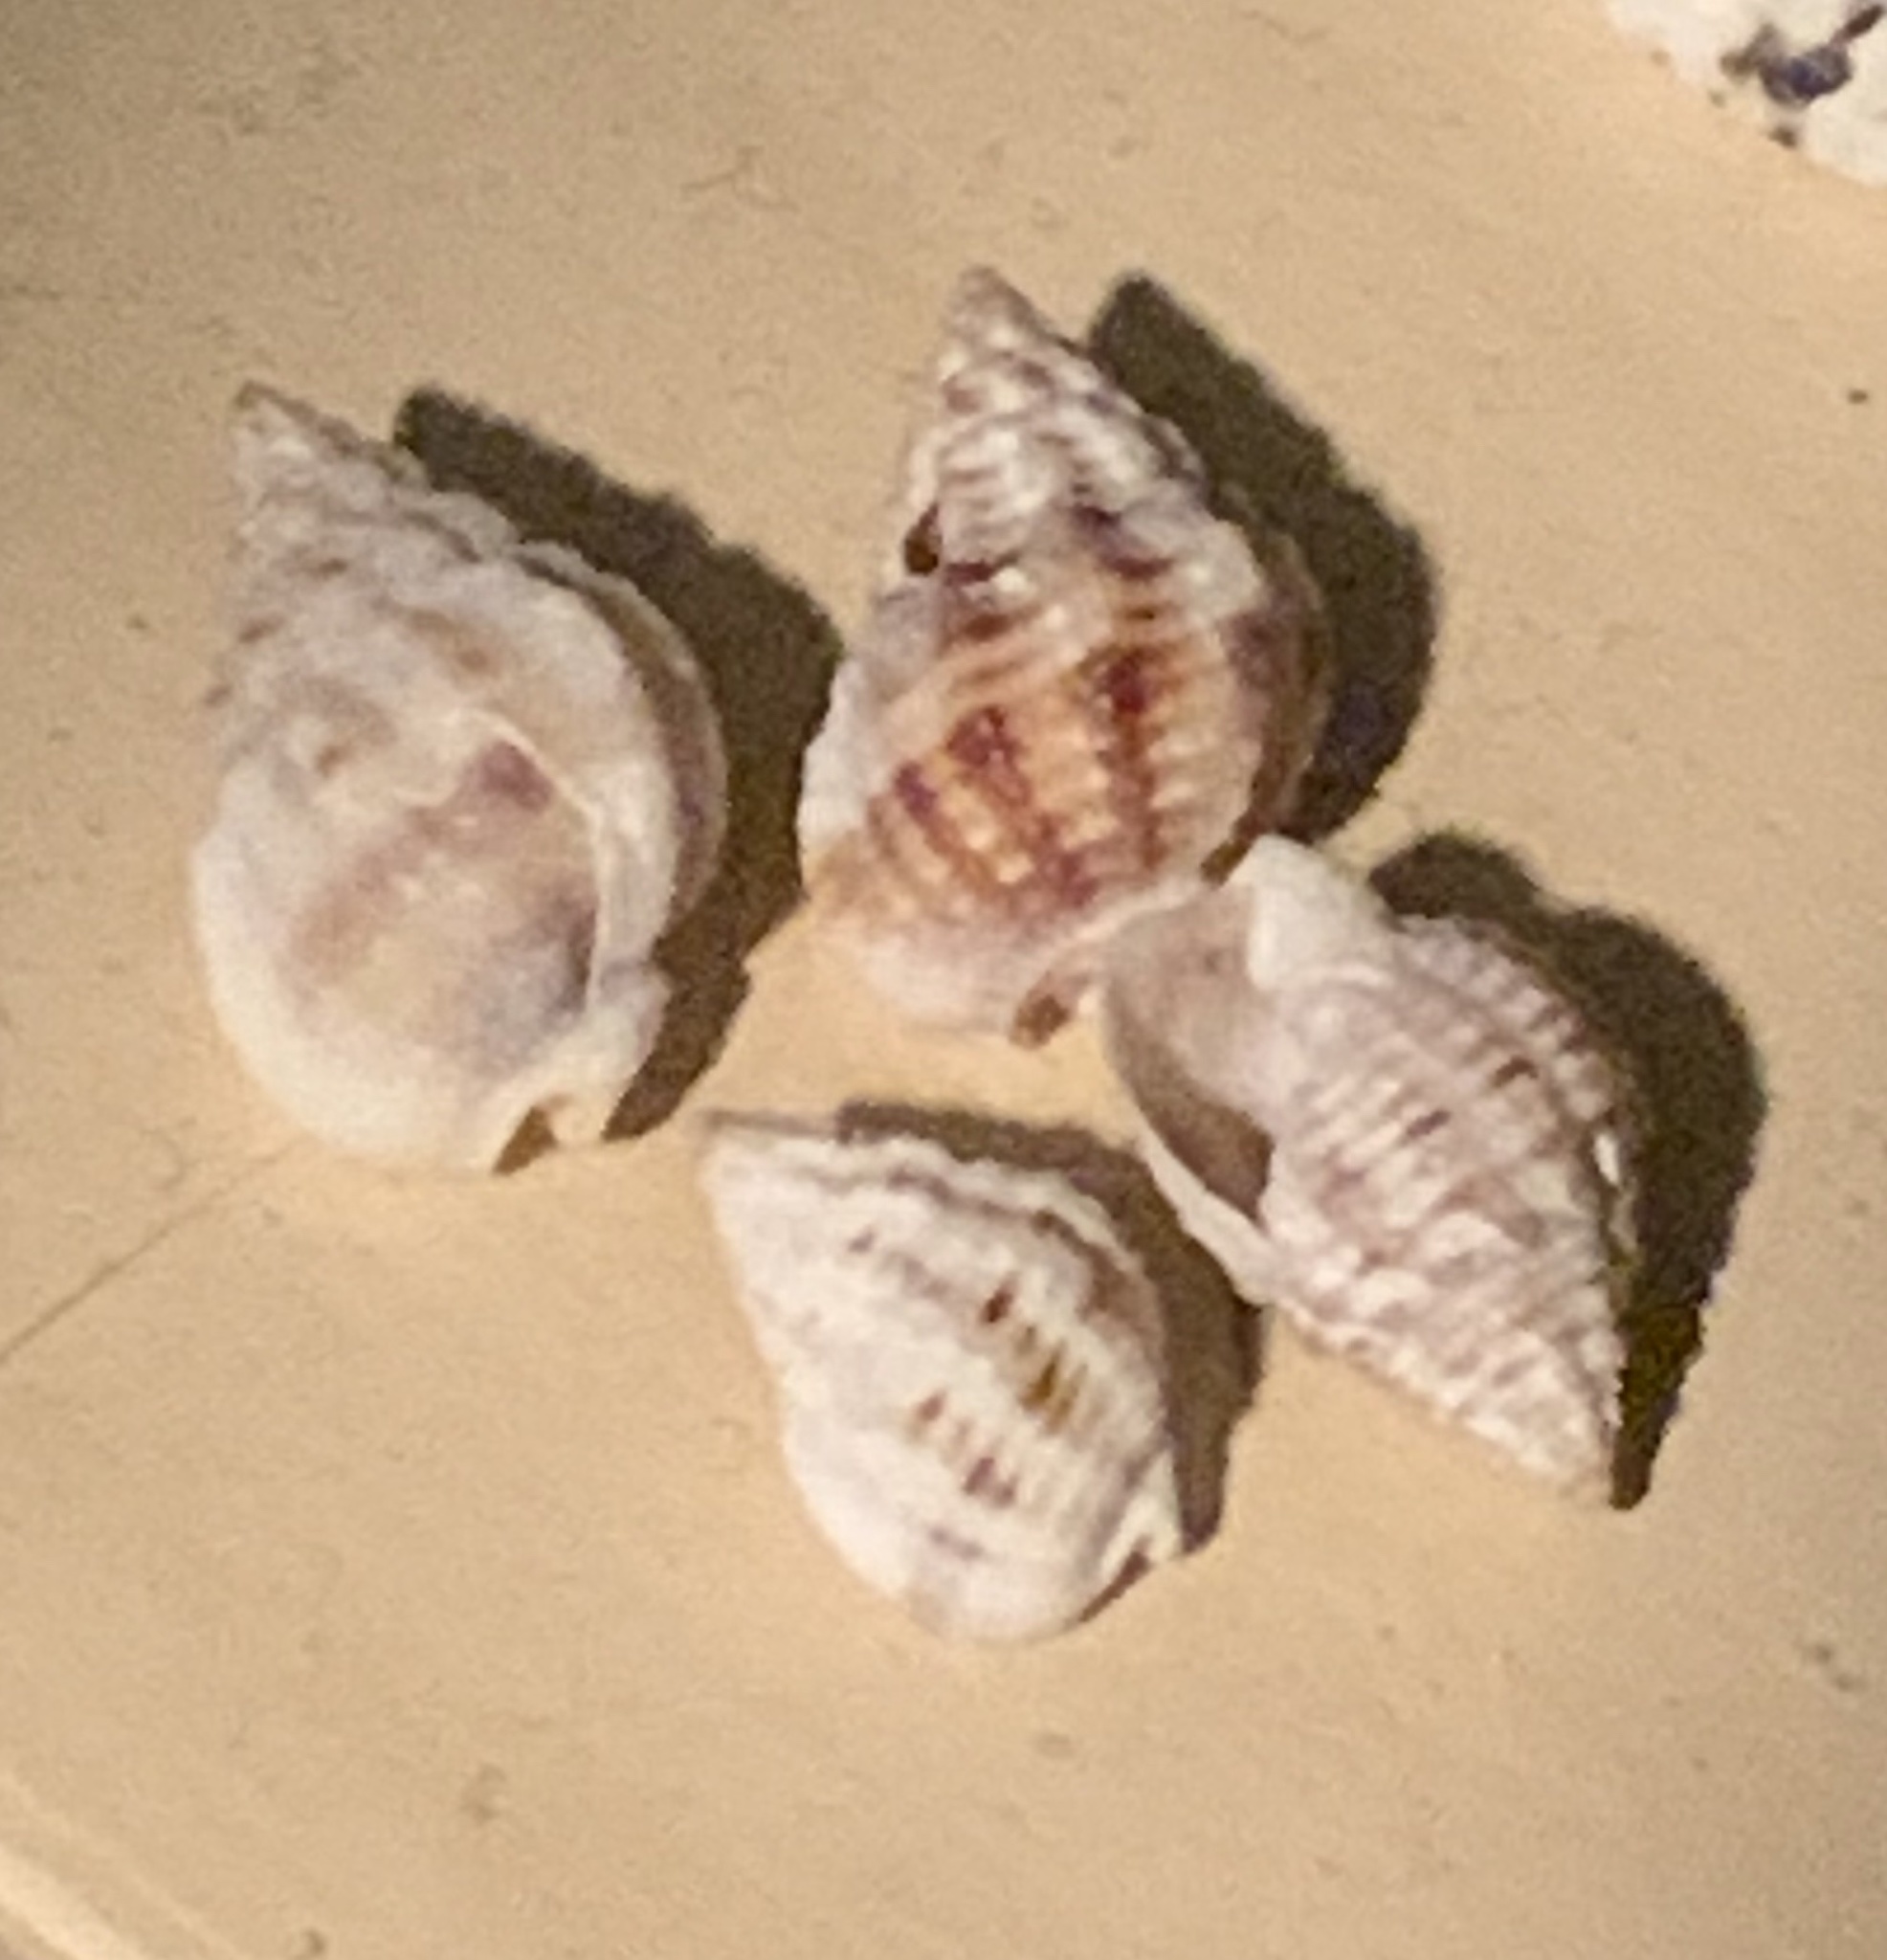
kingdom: Animalia
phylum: Mollusca
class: Gastropoda
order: Neogastropoda
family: Nassariidae
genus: Phrontis
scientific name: Phrontis vibex
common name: Bruised nassa
